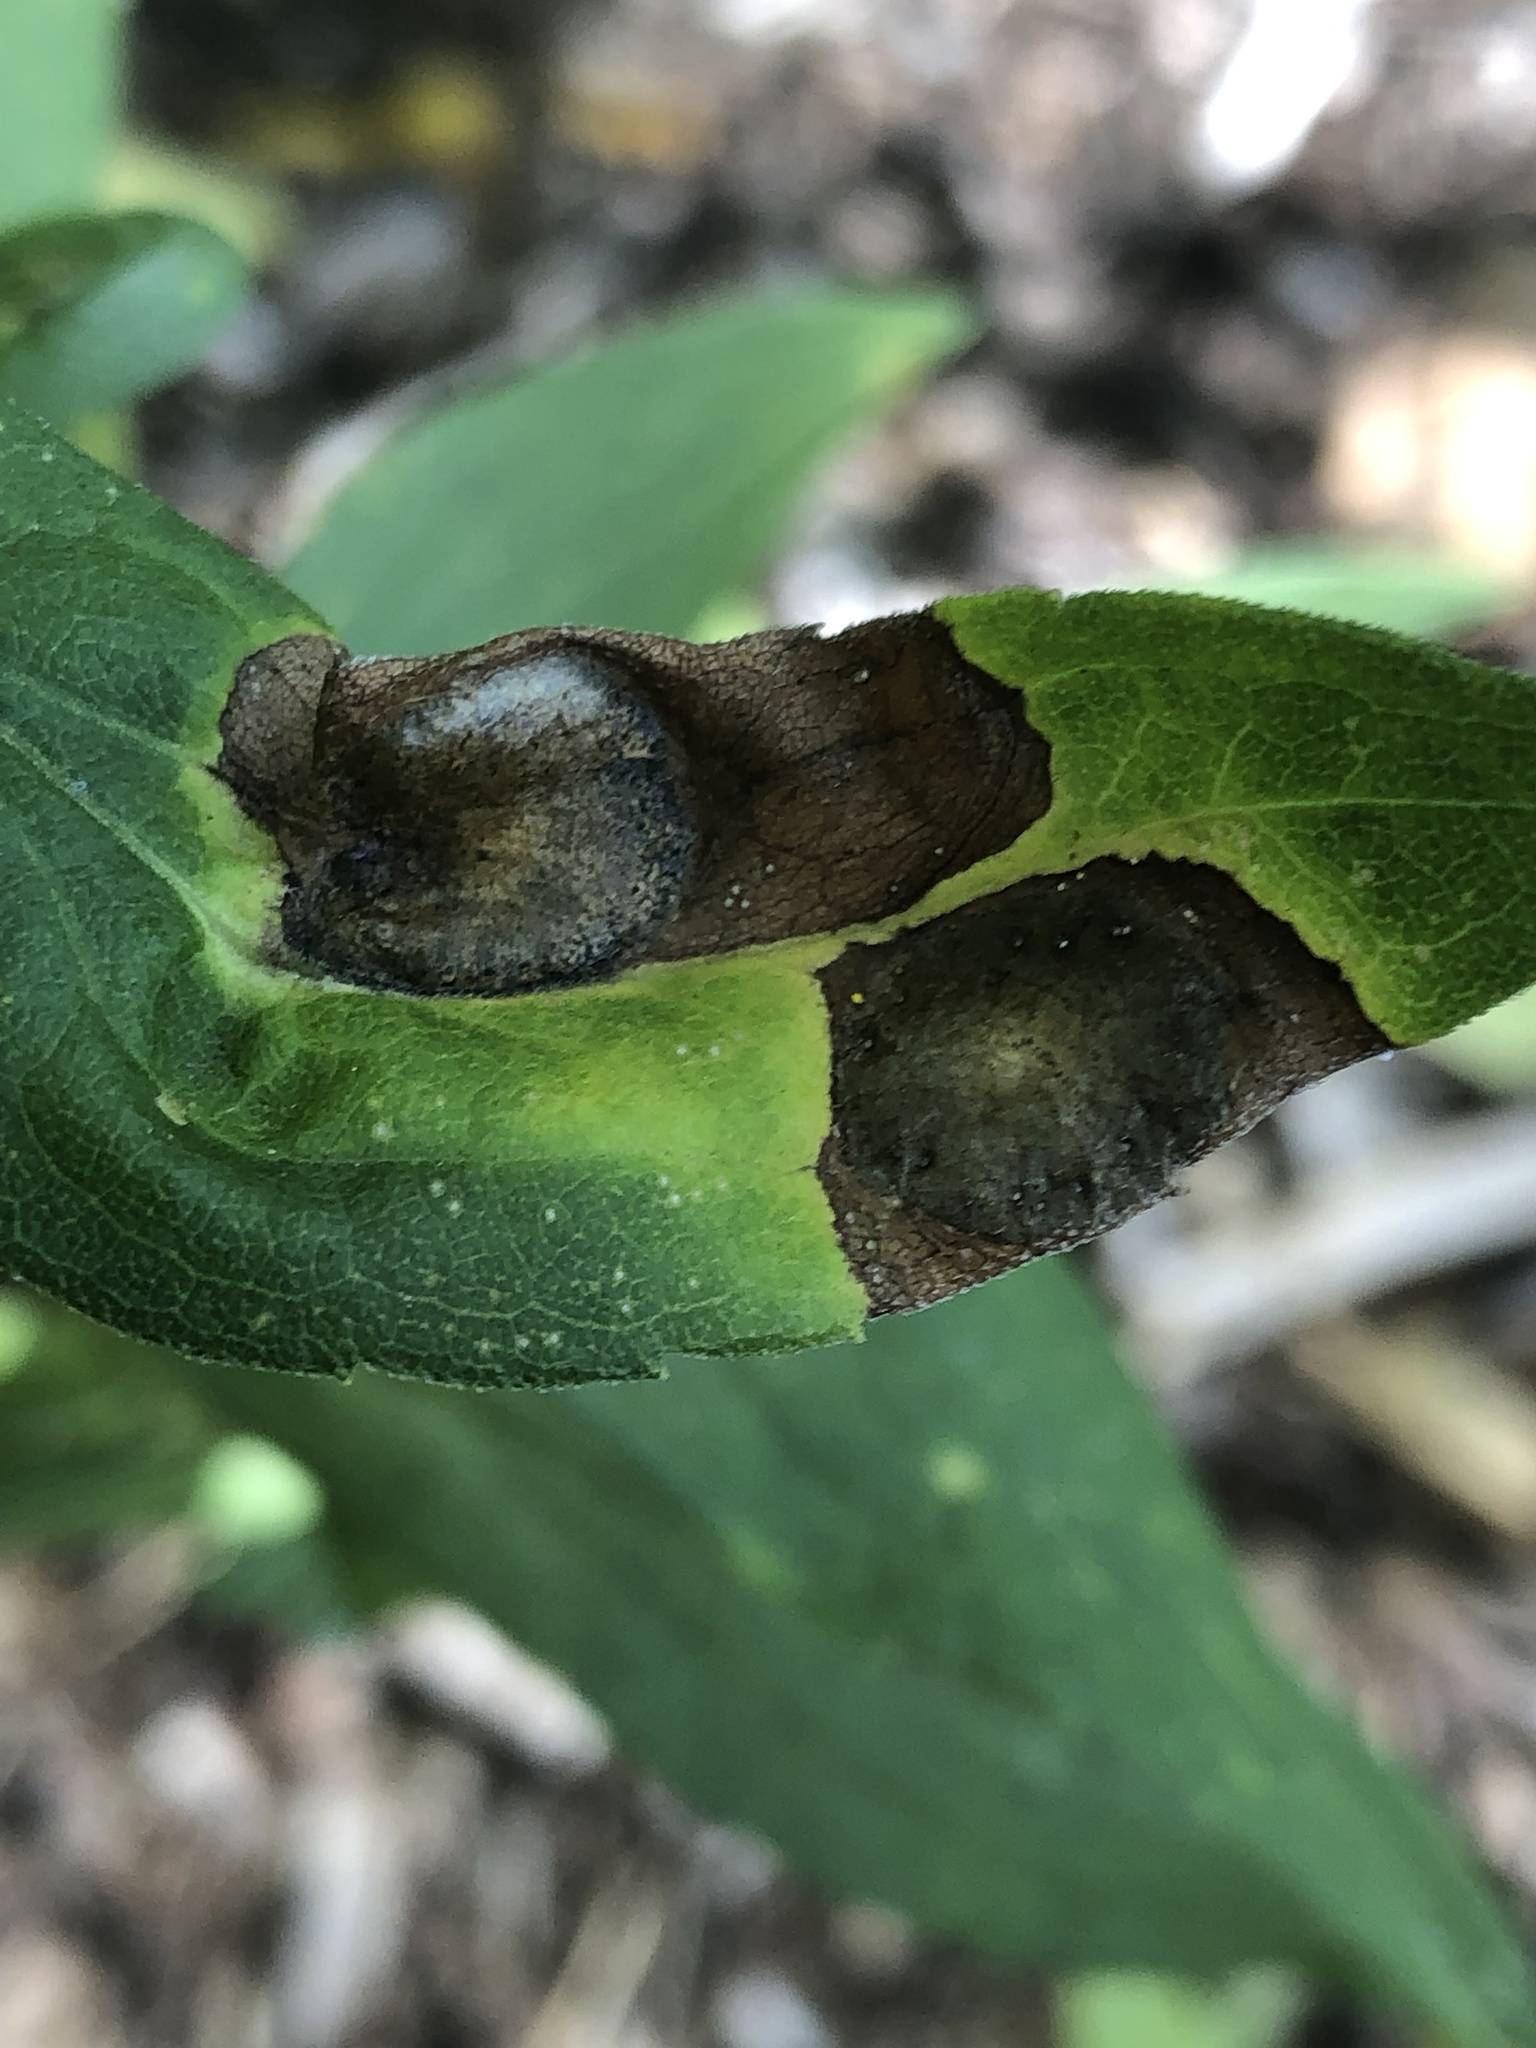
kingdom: Animalia
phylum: Arthropoda
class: Insecta
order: Diptera
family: Cecidomyiidae
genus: Asteromyia
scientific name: Asteromyia carbonifera
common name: Carbonifera goldenrod gall midge
